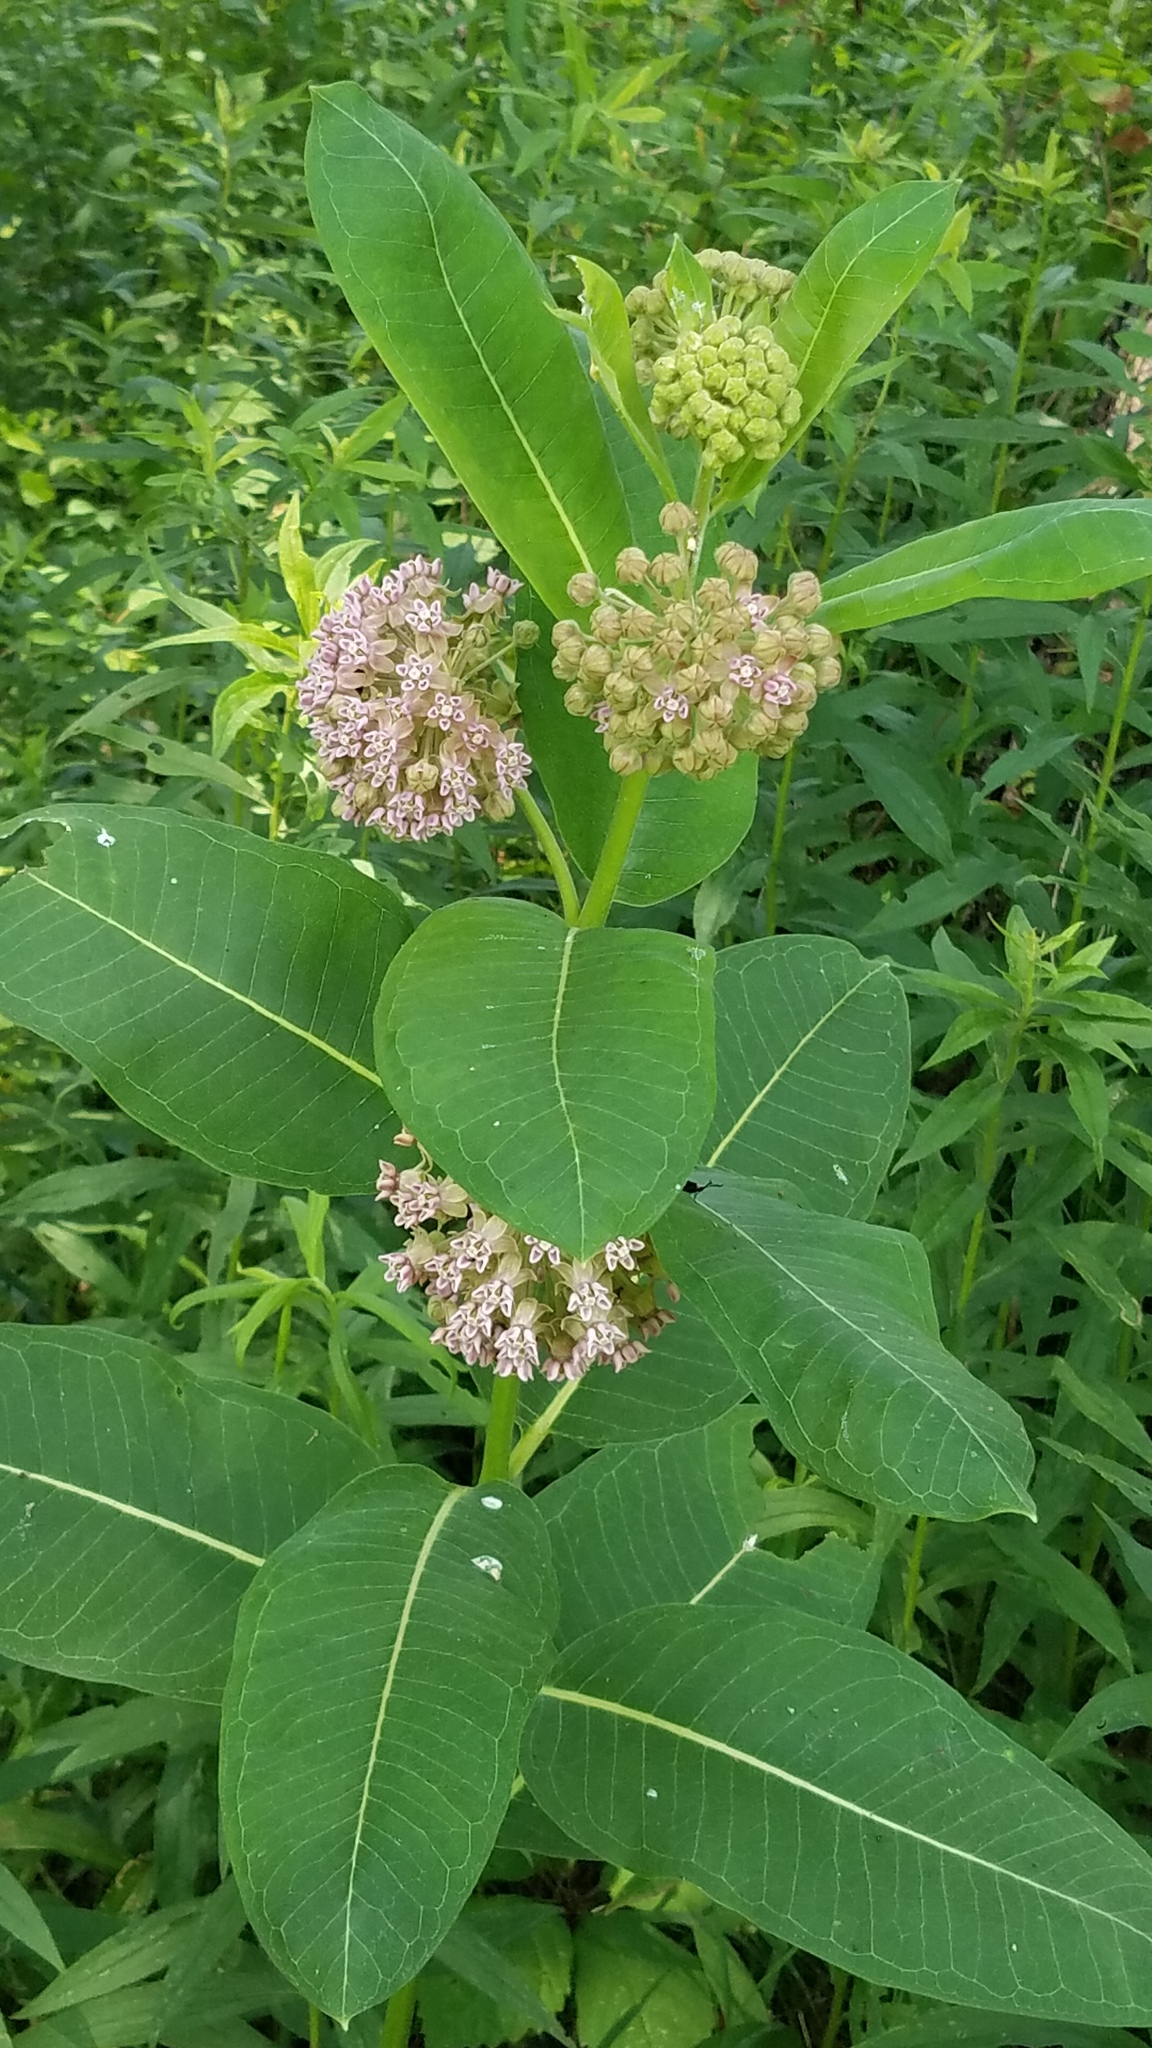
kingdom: Plantae
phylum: Tracheophyta
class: Magnoliopsida
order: Gentianales
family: Apocynaceae
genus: Asclepias
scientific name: Asclepias syriaca
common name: Common milkweed
